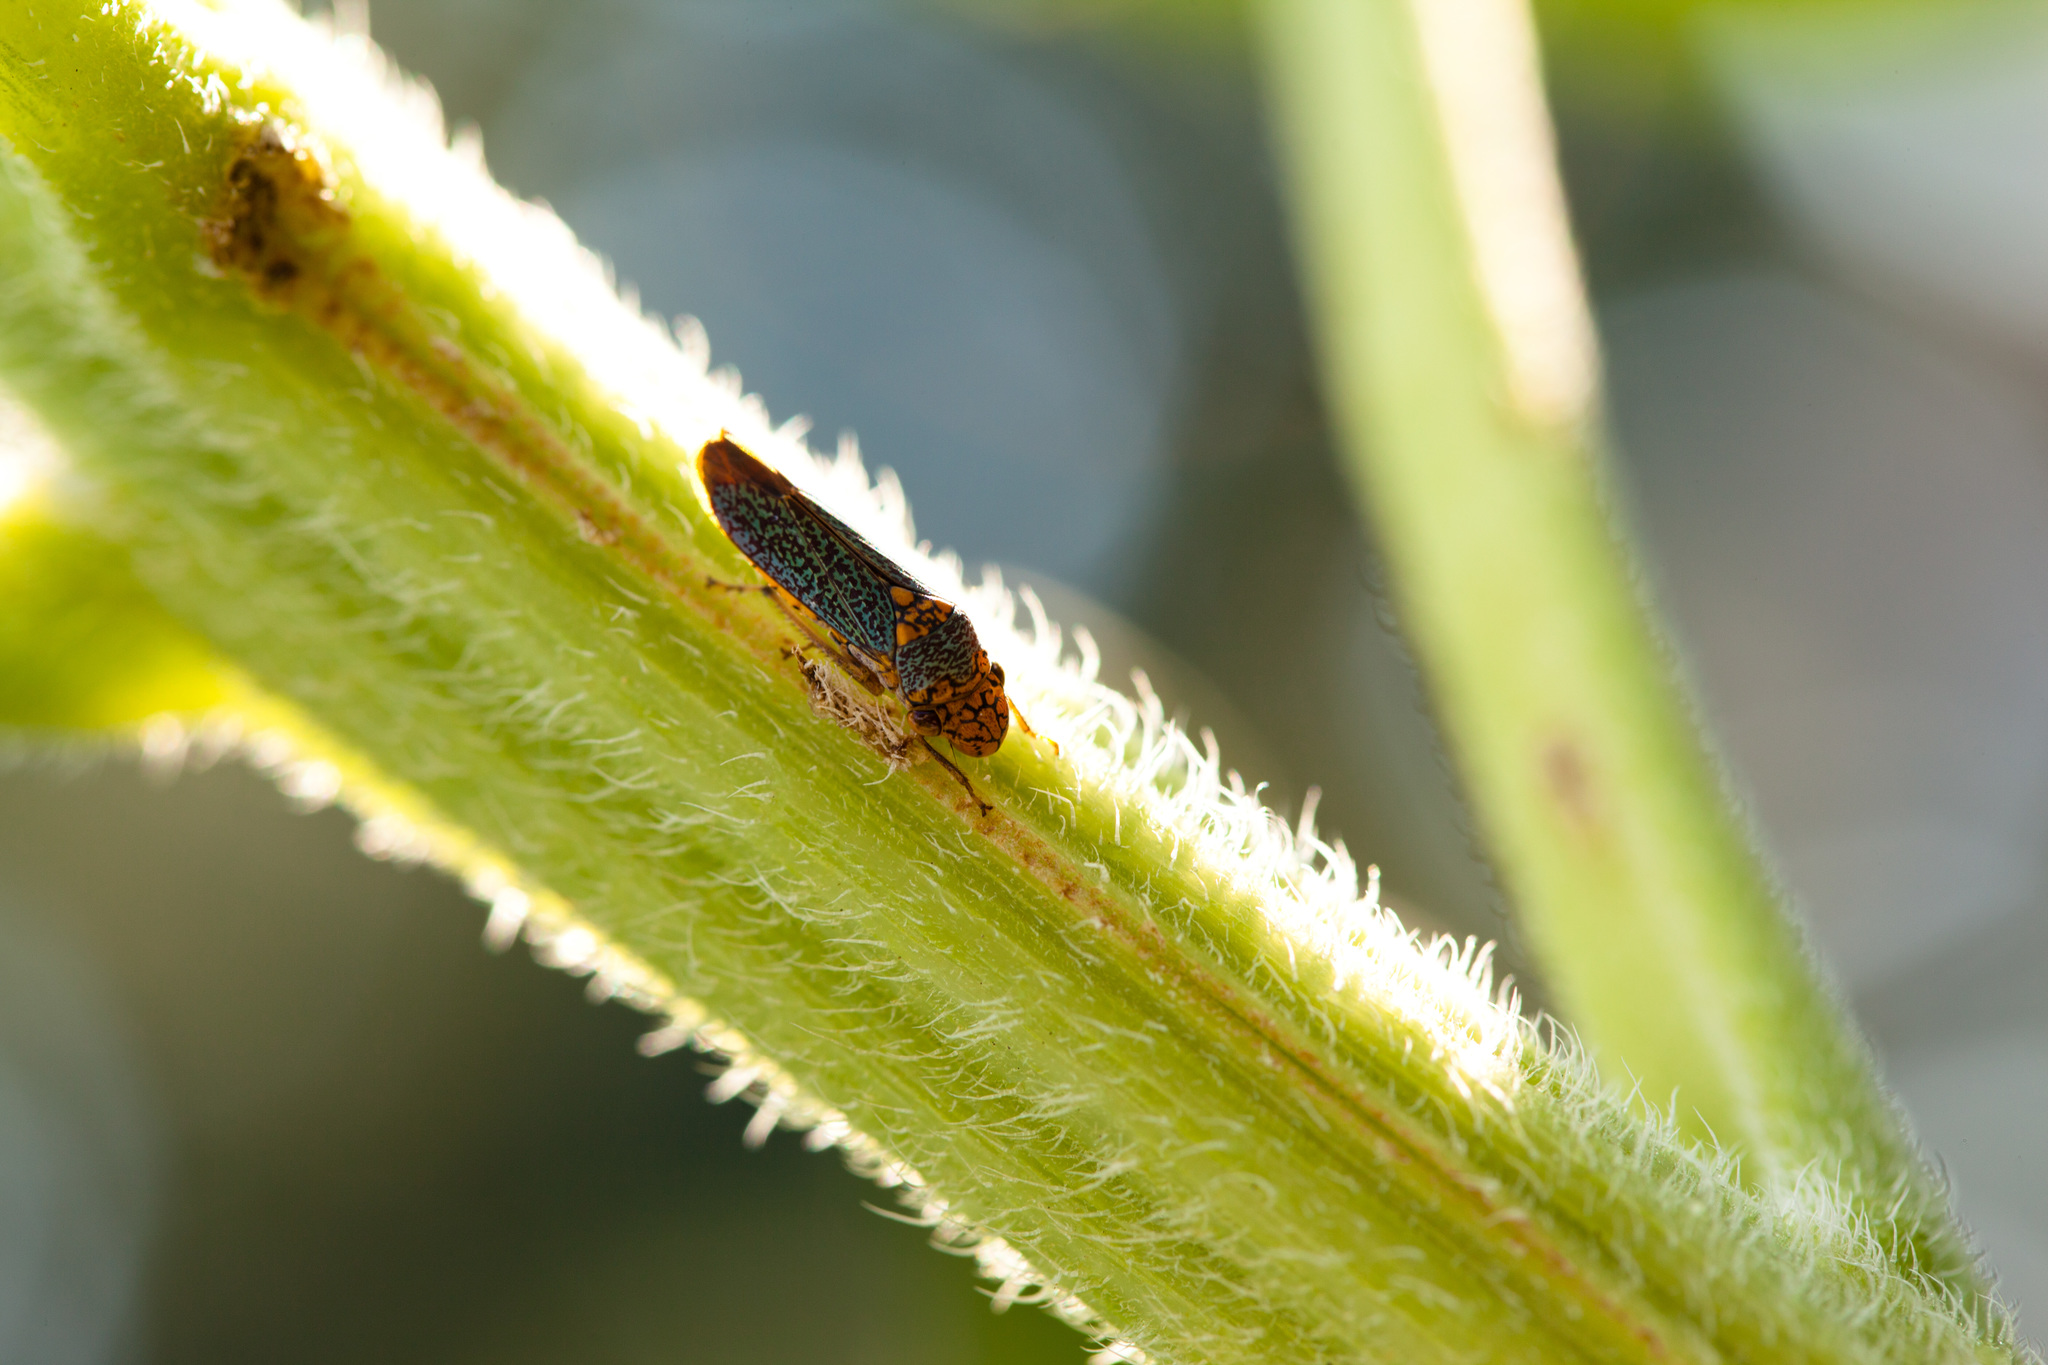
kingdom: Animalia
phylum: Arthropoda
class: Insecta
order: Hemiptera
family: Cicadellidae
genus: Oncometopia
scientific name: Oncometopia orbona
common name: Broad-headed sharpshooter
